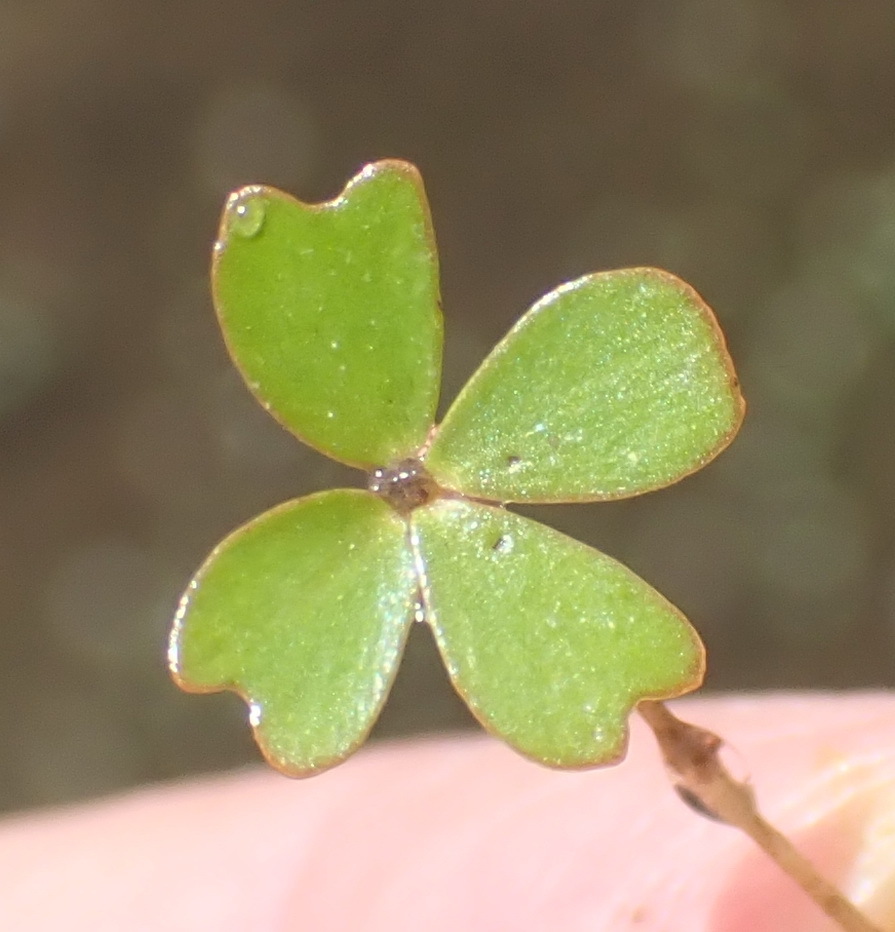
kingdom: Plantae
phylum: Tracheophyta
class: Polypodiopsida
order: Salviniales
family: Marsileaceae
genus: Marsilea
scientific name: Marsilea macrocarpa
